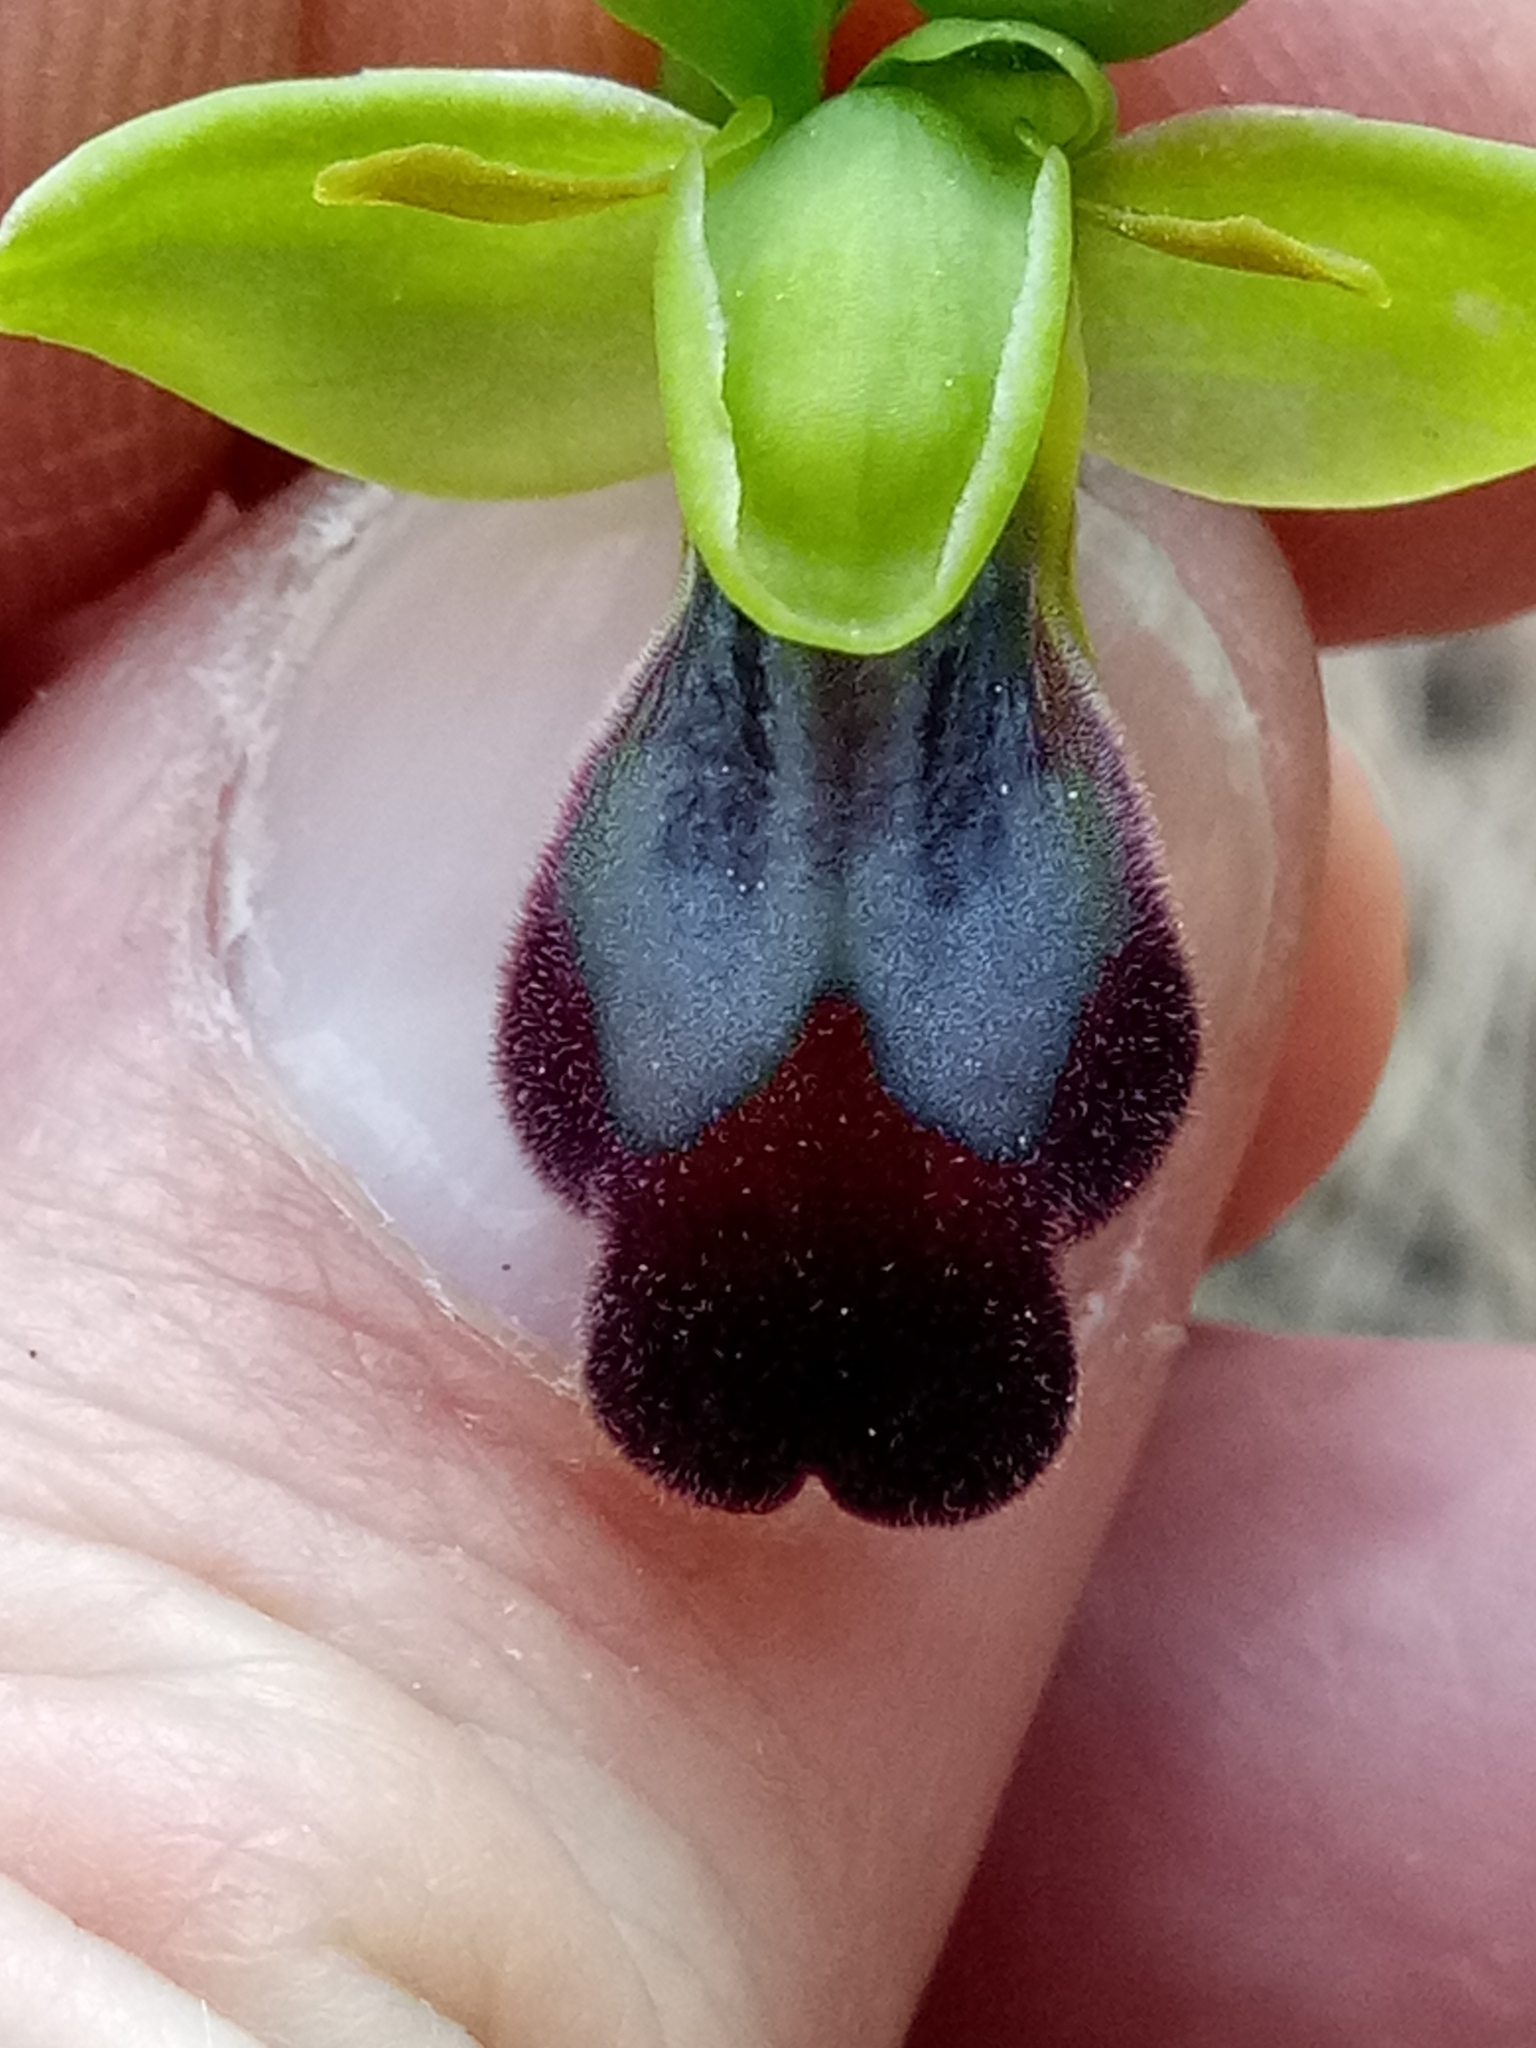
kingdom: Plantae
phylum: Tracheophyta
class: Liliopsida
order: Asparagales
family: Orchidaceae
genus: Ophrys
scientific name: Ophrys fusca
